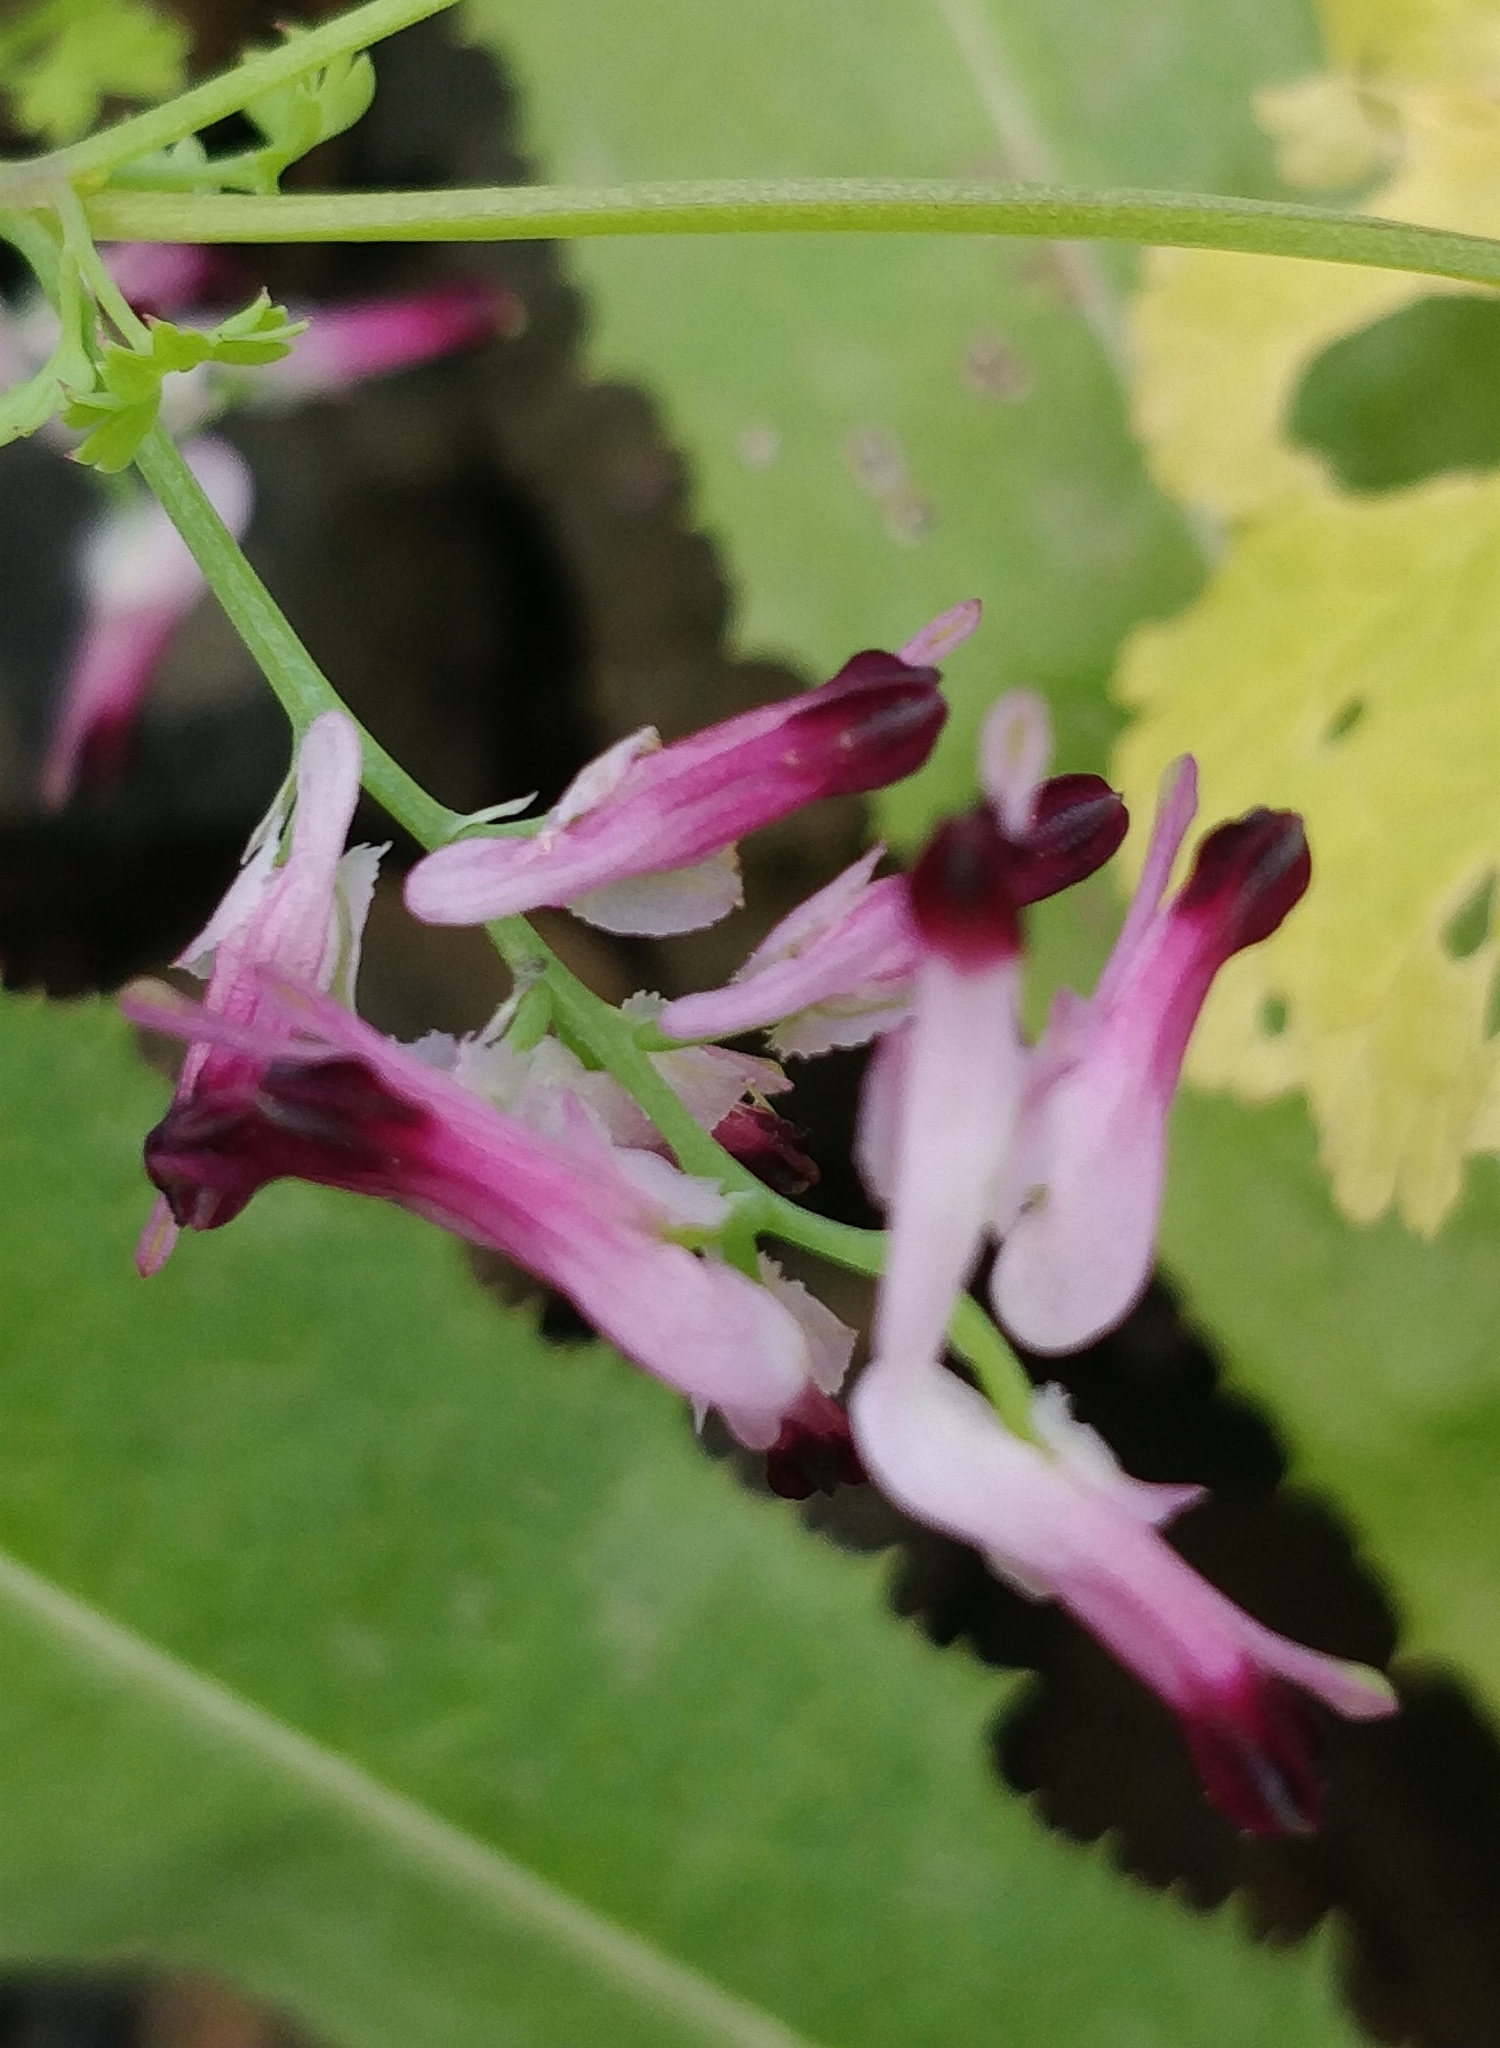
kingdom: Plantae
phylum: Tracheophyta
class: Magnoliopsida
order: Ranunculales
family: Papaveraceae
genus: Fumaria
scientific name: Fumaria muralis
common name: Common ramping-fumitory
